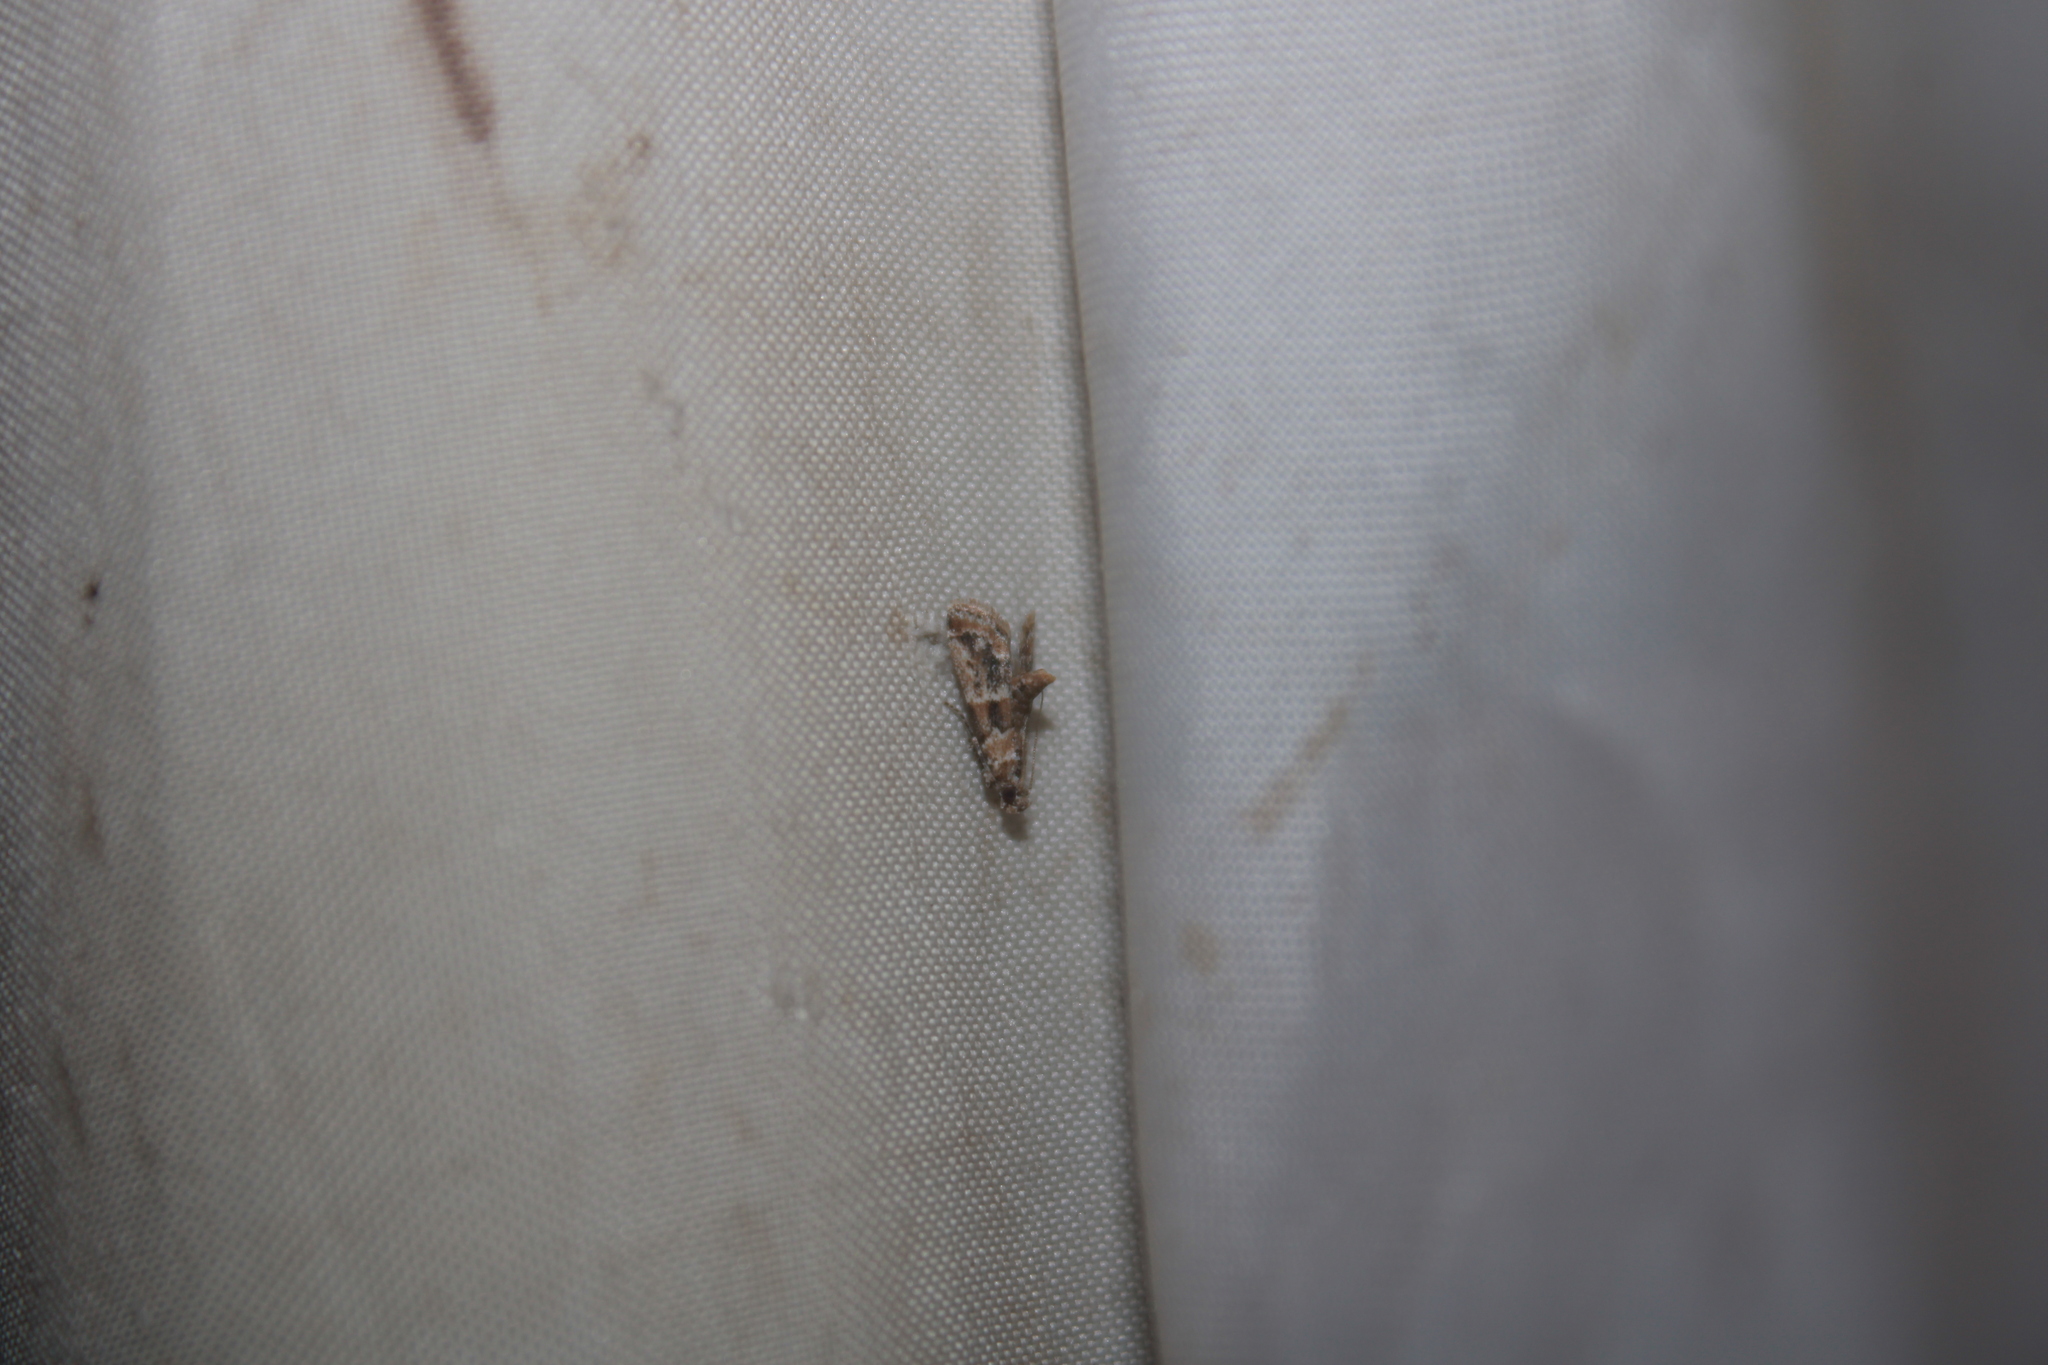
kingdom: Animalia
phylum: Arthropoda
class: Insecta
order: Lepidoptera
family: Pyralidae
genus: Neodavisia
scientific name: Neodavisia singularis
